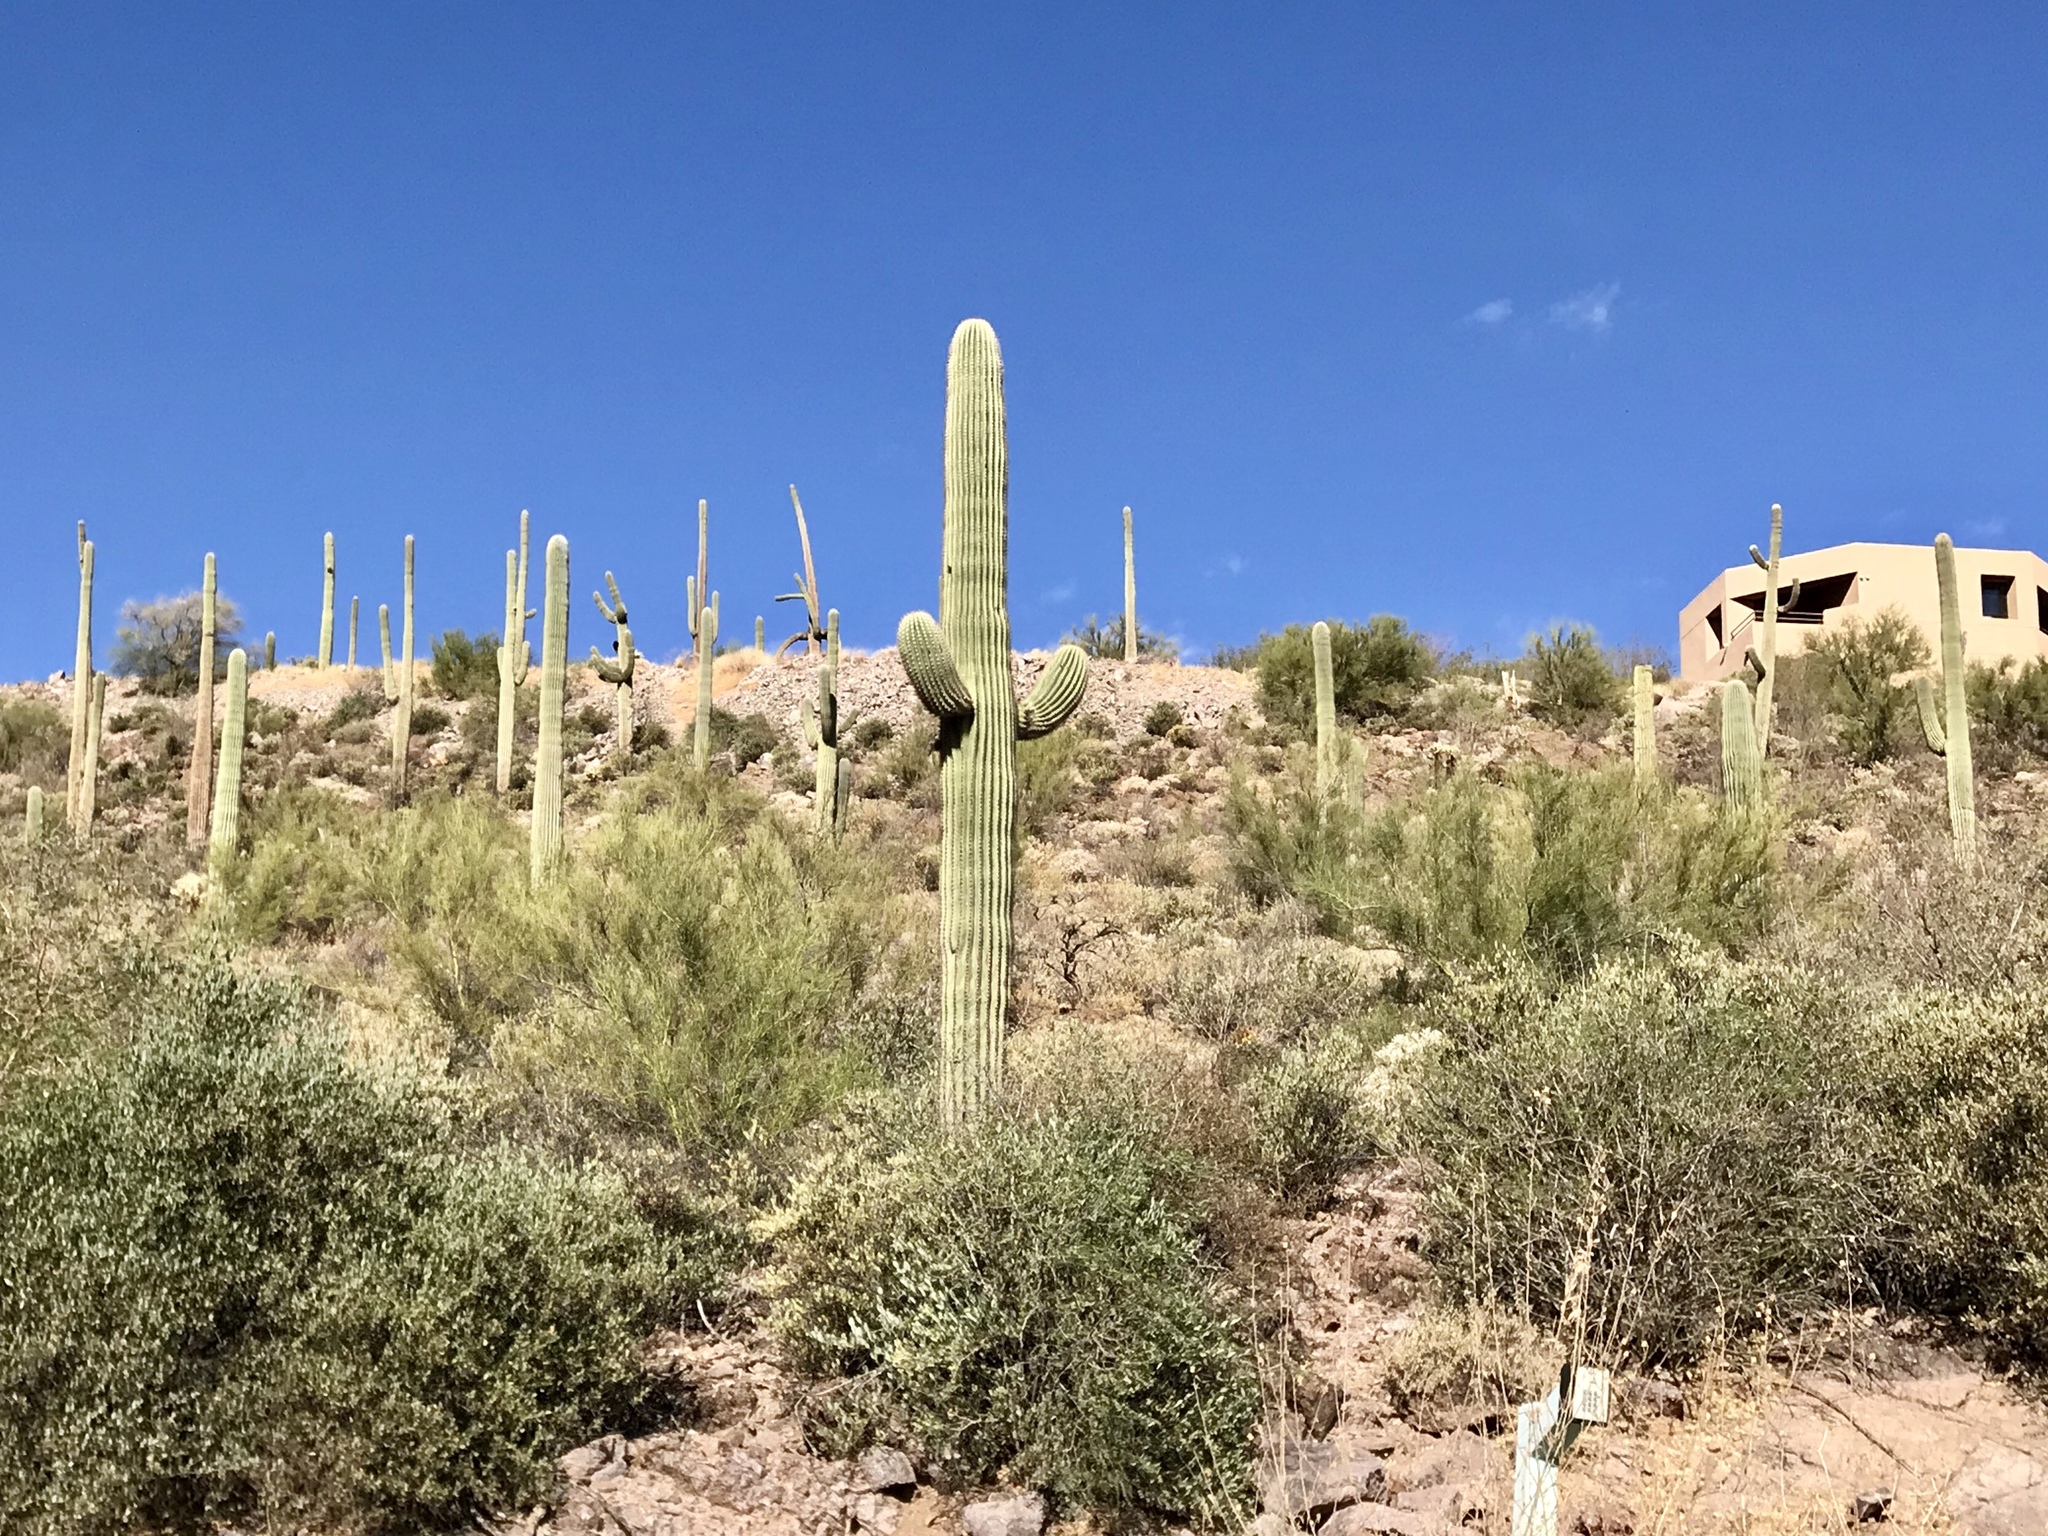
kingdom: Plantae
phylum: Tracheophyta
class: Magnoliopsida
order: Caryophyllales
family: Cactaceae
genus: Carnegiea
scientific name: Carnegiea gigantea
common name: Saguaro
